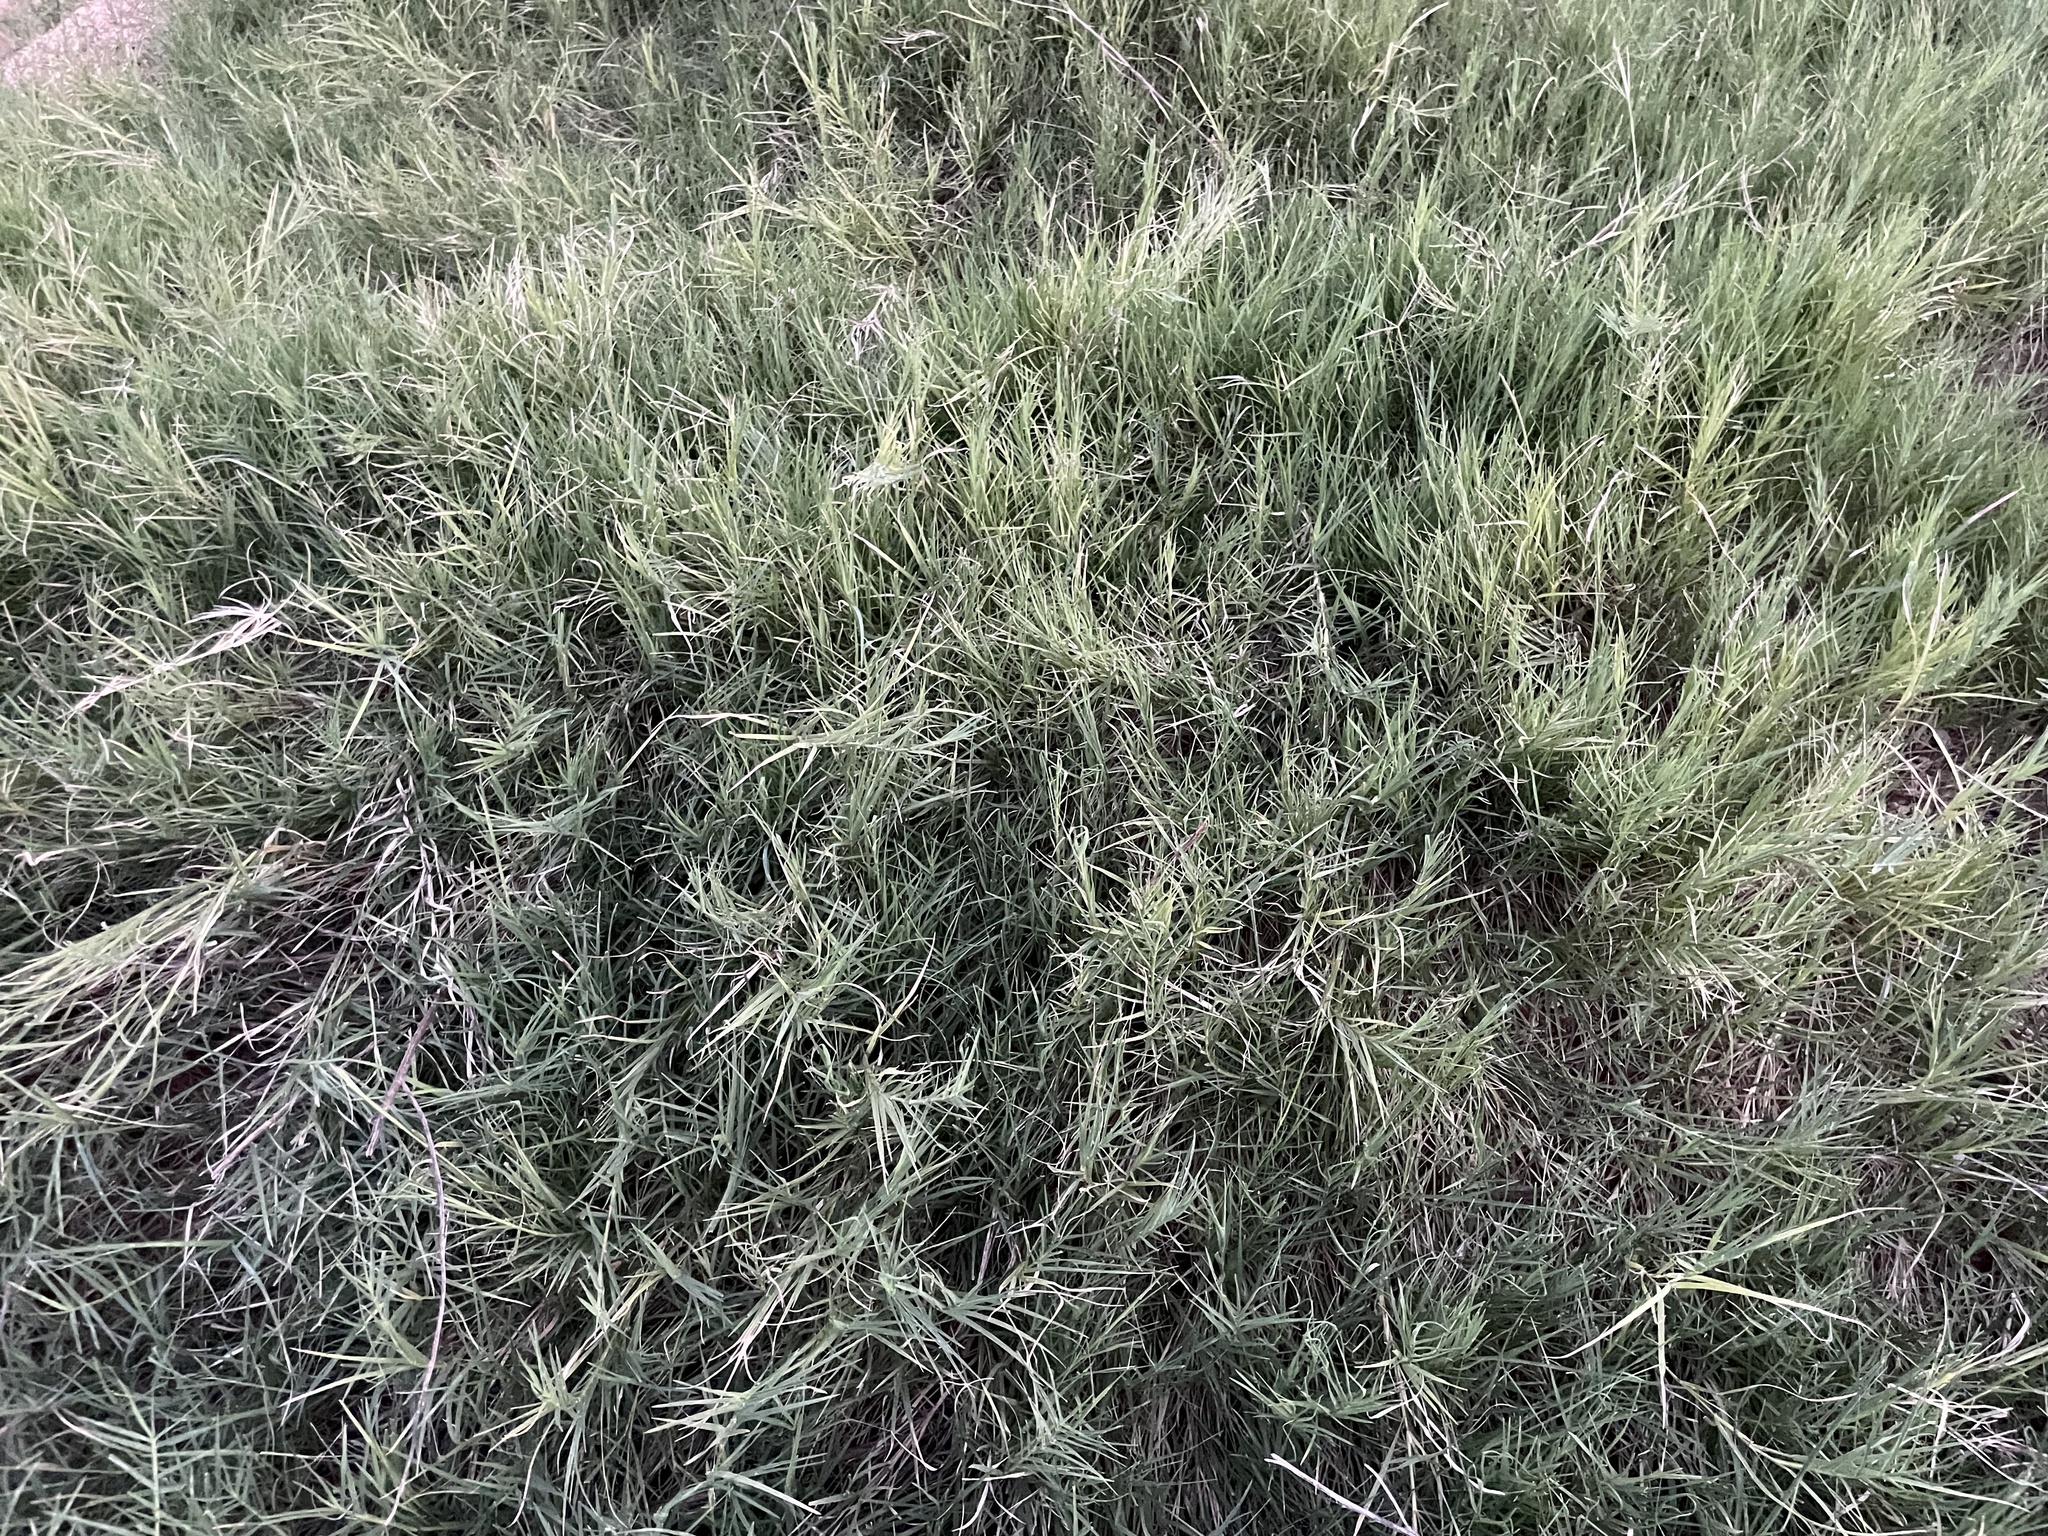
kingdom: Plantae
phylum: Tracheophyta
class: Liliopsida
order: Poales
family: Poaceae
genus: Cynodon
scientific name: Cynodon dactylon
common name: Bermuda grass
